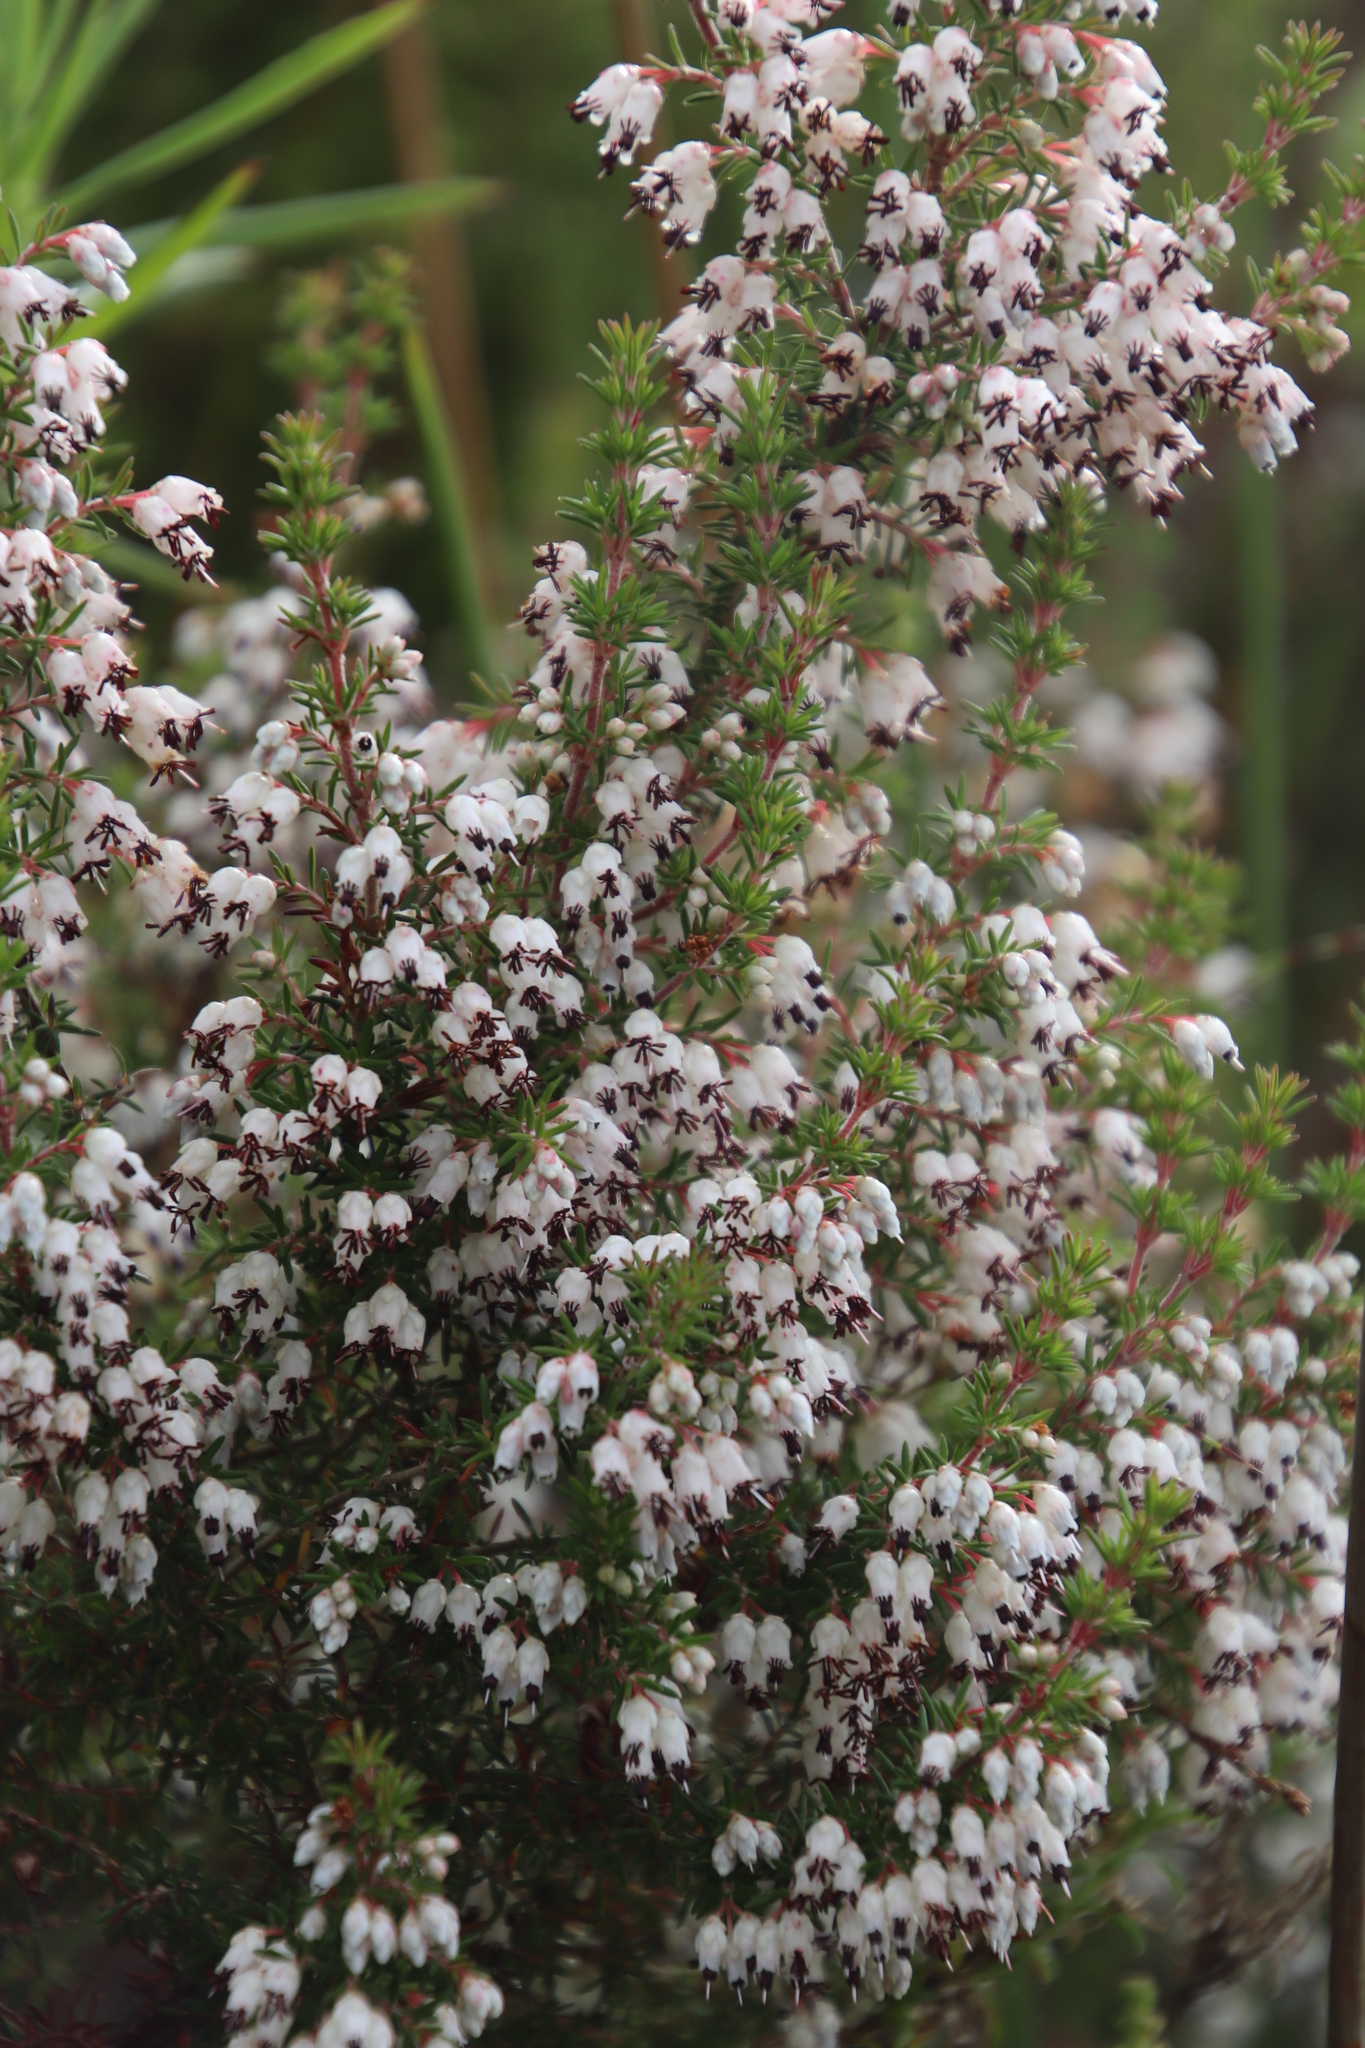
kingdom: Plantae
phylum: Tracheophyta
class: Magnoliopsida
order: Ericales
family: Ericaceae
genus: Erica
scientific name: Erica desmantha
